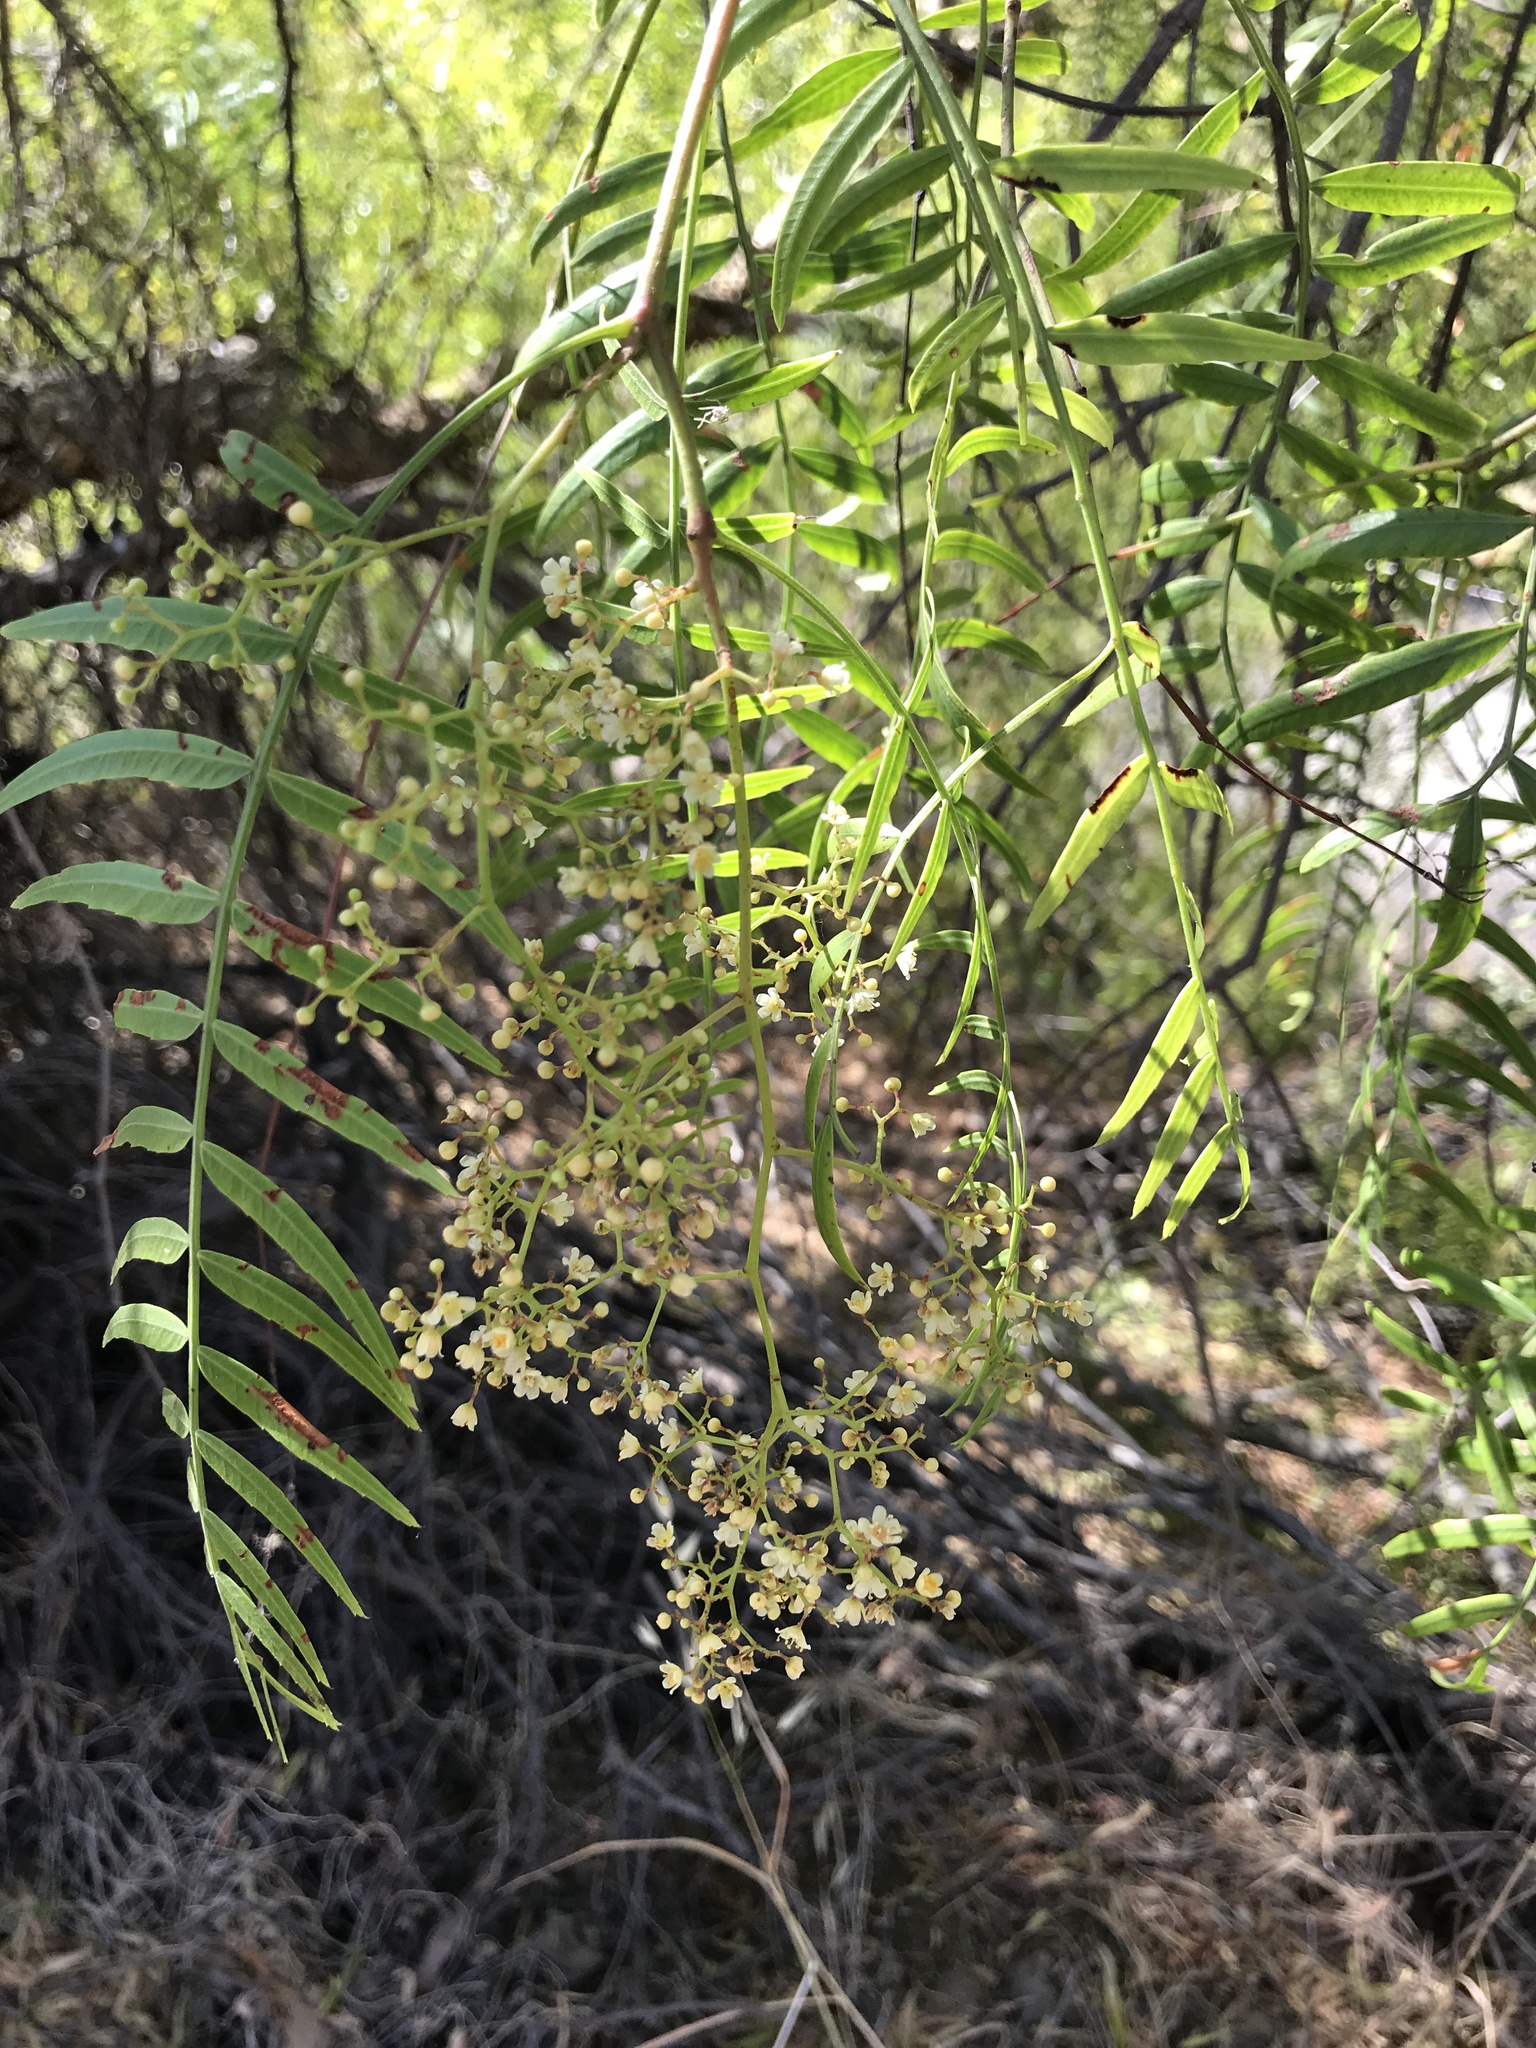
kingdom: Plantae
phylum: Tracheophyta
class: Magnoliopsida
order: Sapindales
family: Anacardiaceae
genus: Schinus
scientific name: Schinus molle
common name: Peruvian peppertree
